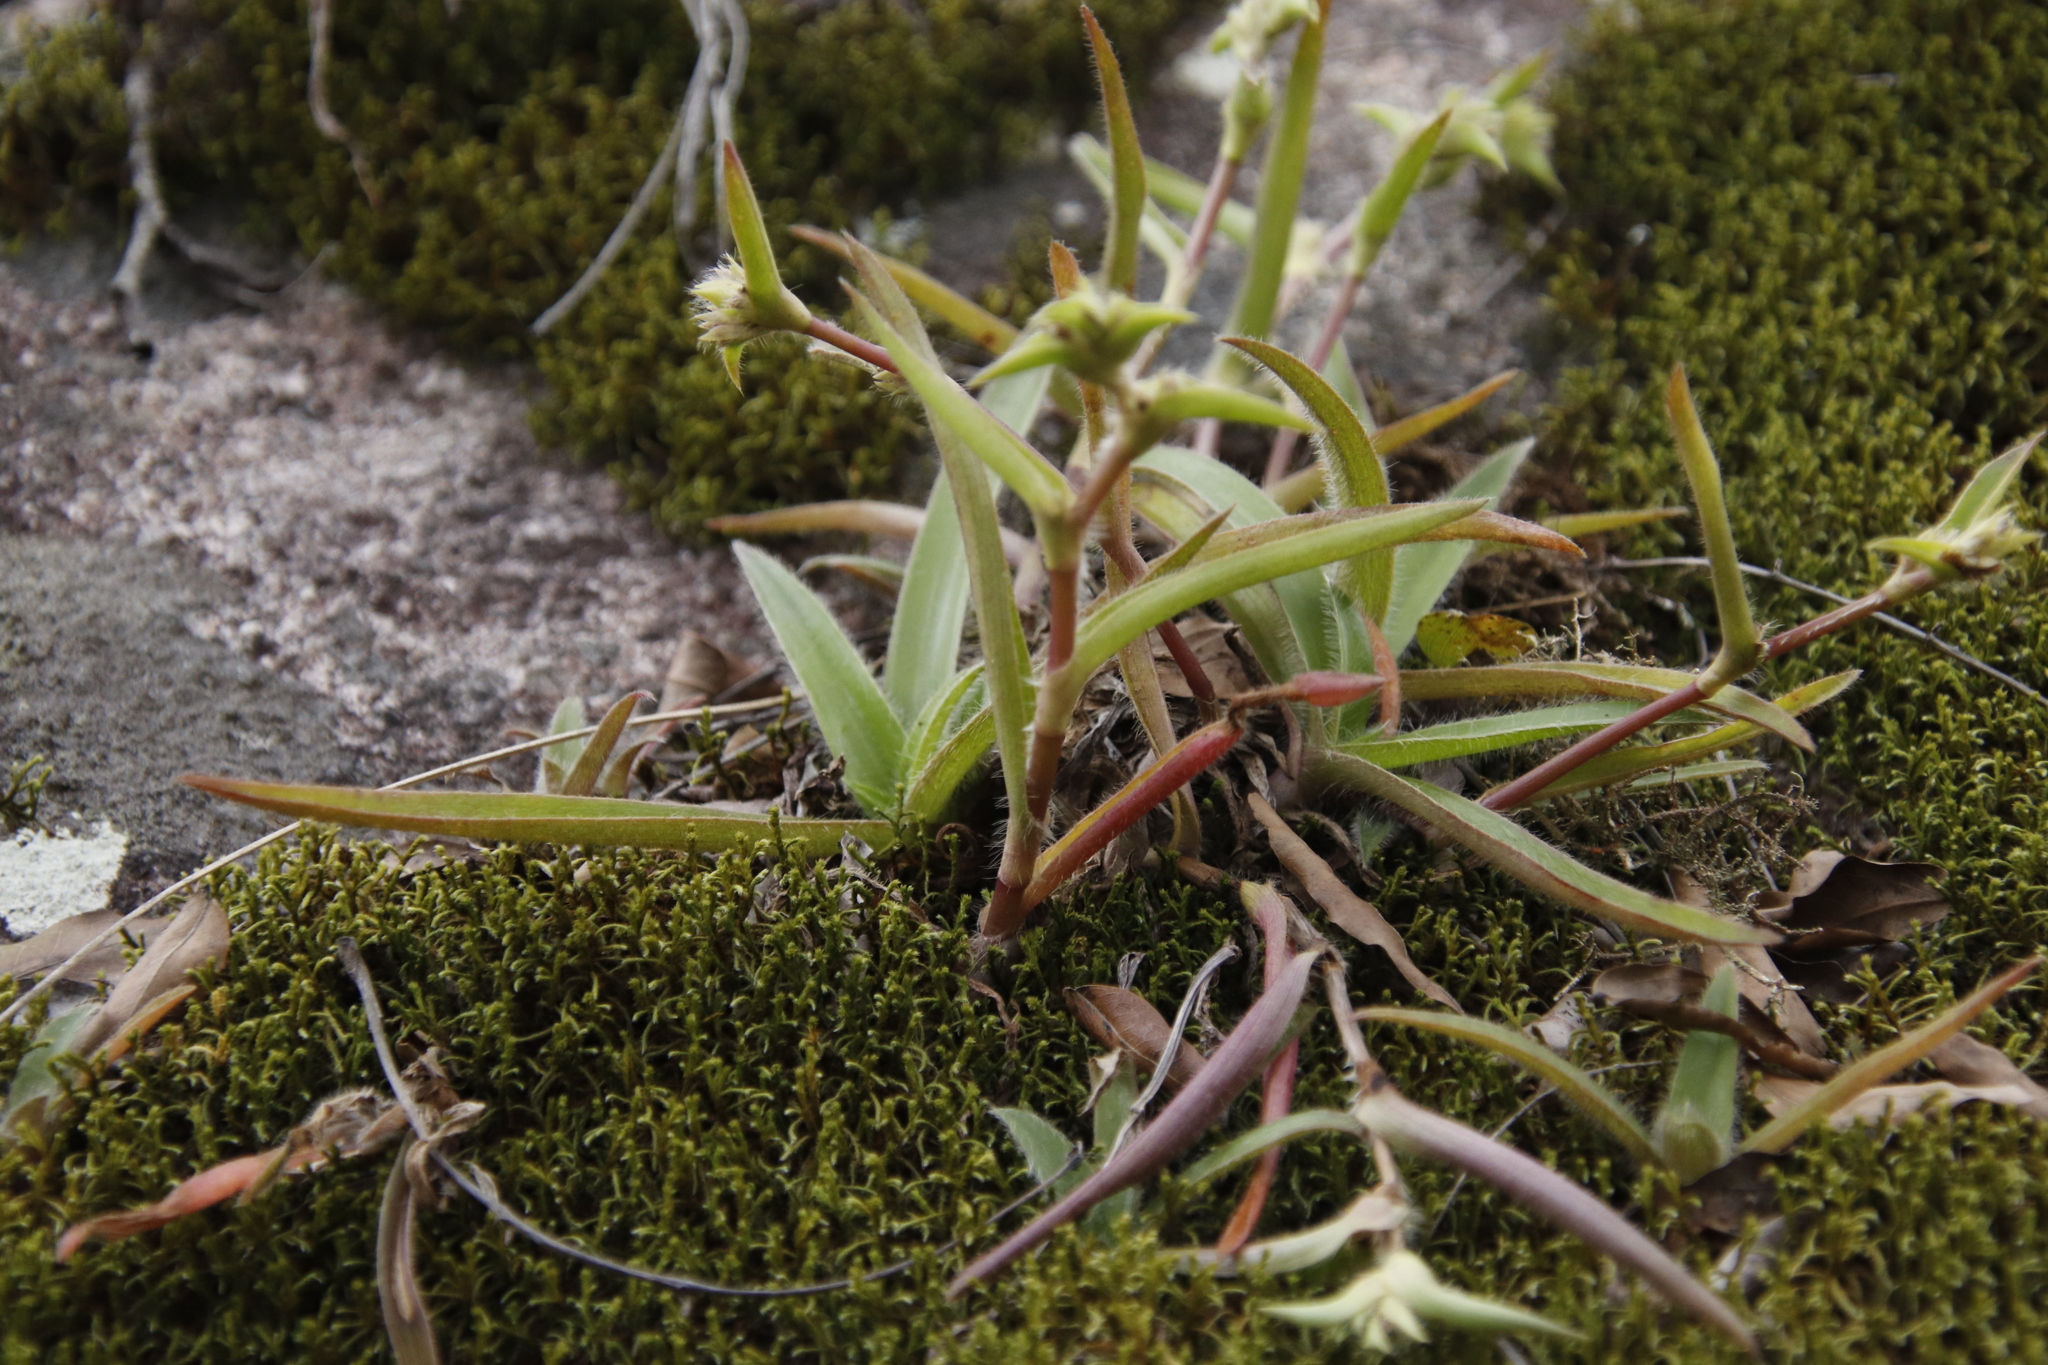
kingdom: Plantae
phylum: Bryophyta
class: Bryopsida
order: Hedwigiales
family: Hedwigiaceae
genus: Hedwigia
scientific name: Hedwigia filiformis
